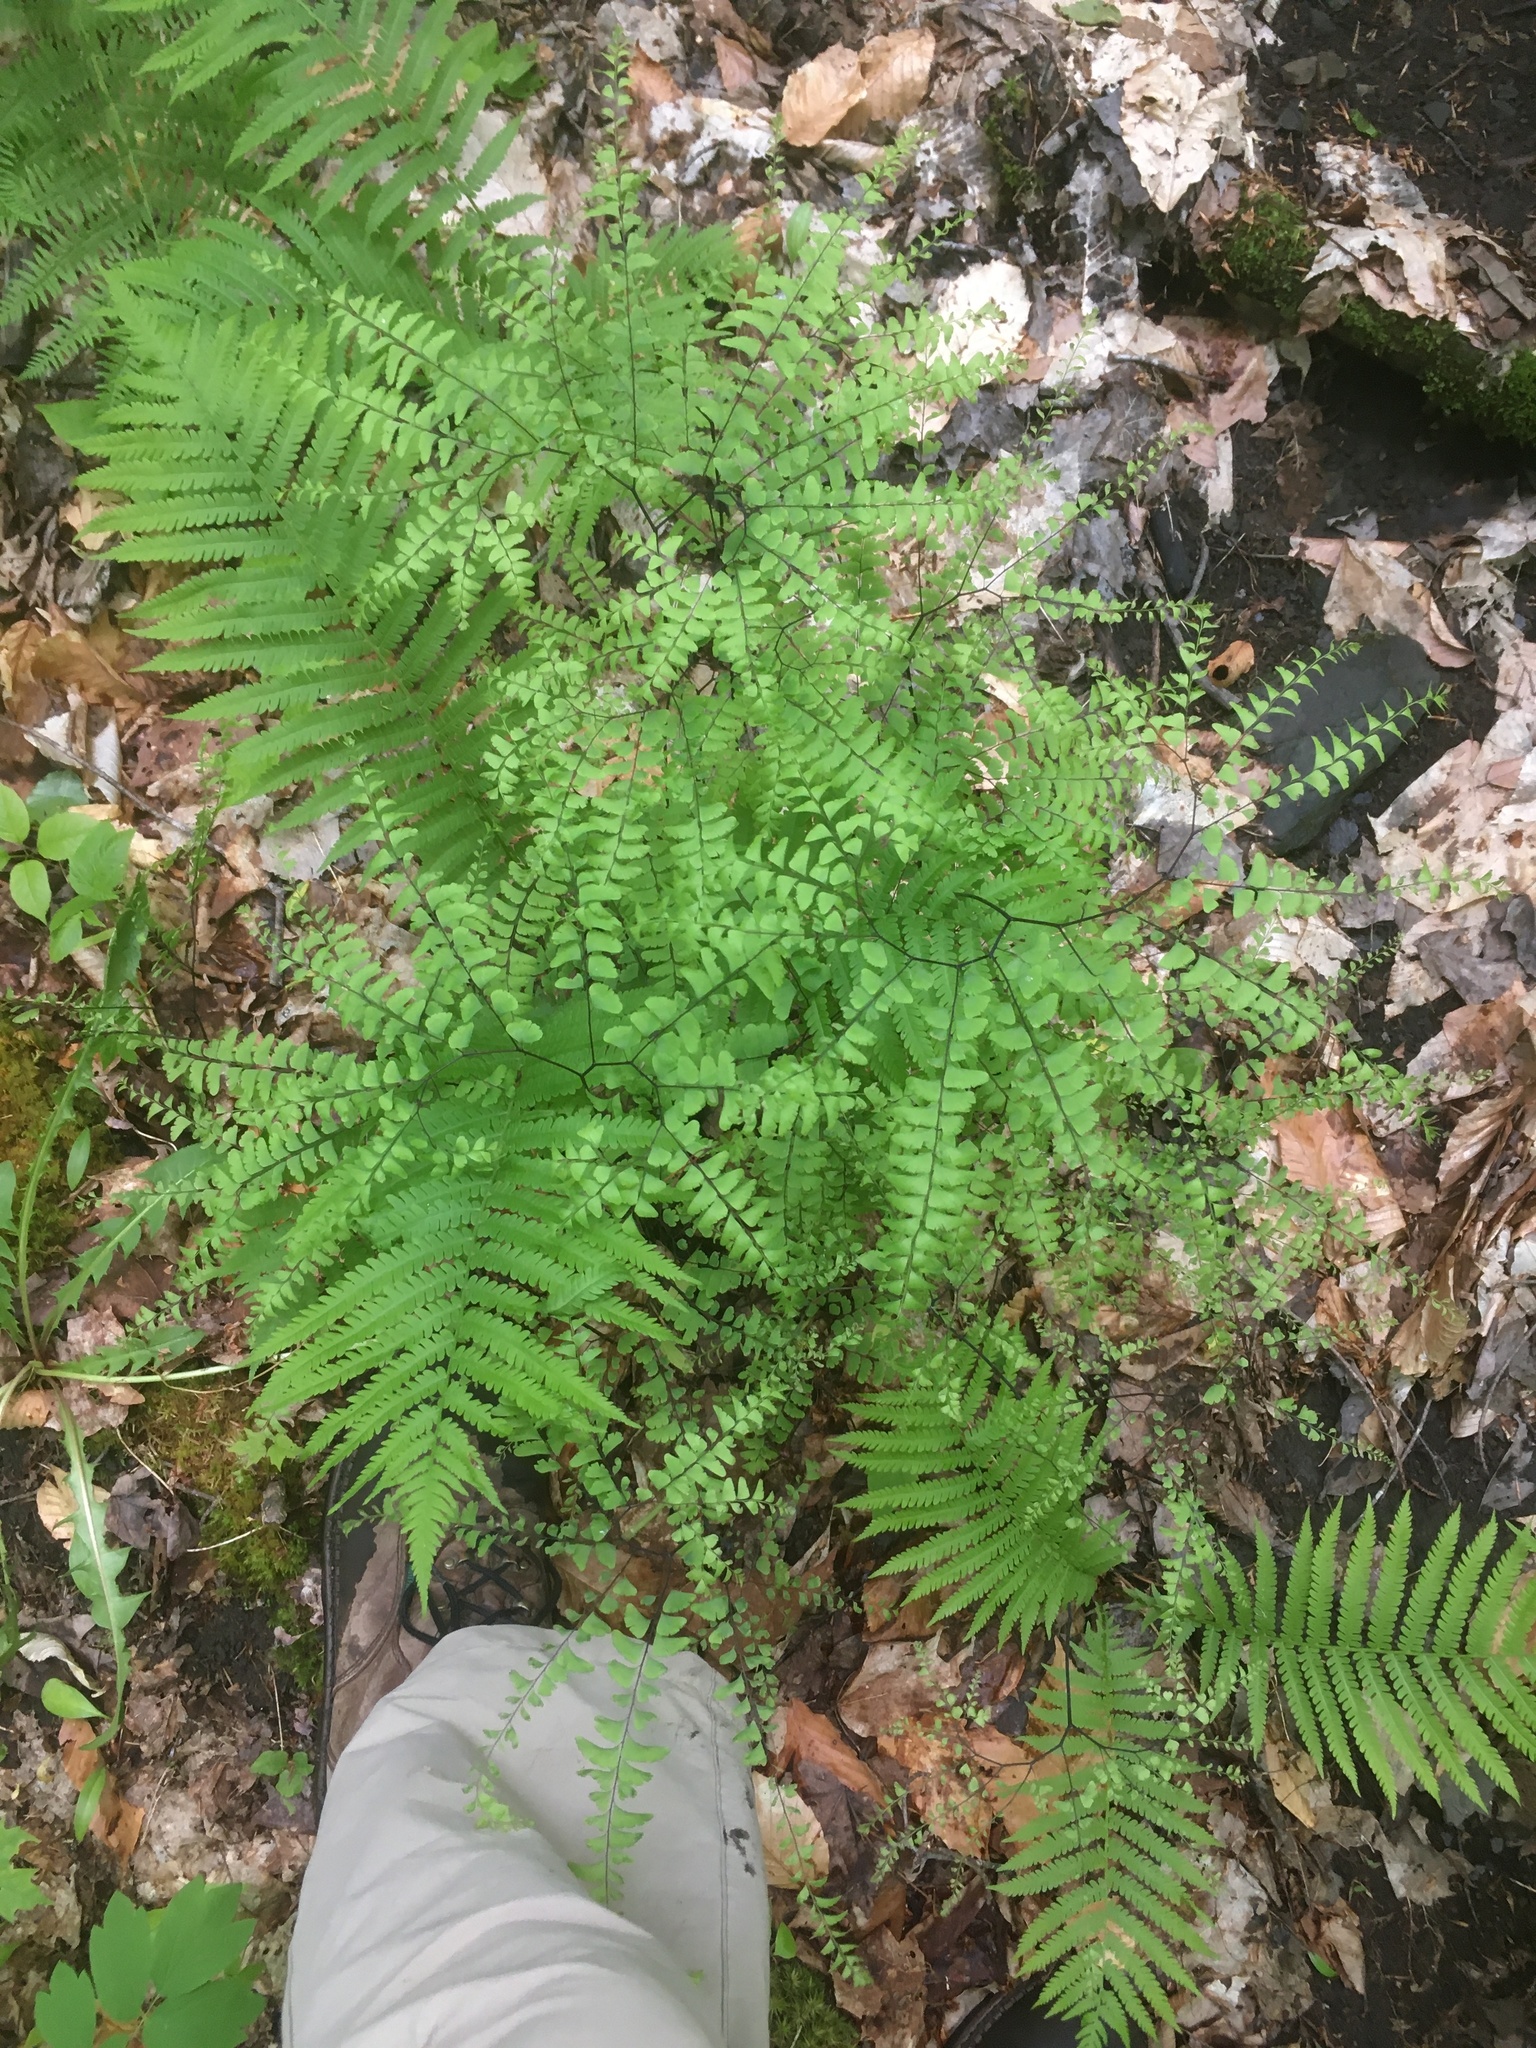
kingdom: Plantae
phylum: Tracheophyta
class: Polypodiopsida
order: Polypodiales
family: Pteridaceae
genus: Adiantum
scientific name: Adiantum pedatum
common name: Five-finger fern
